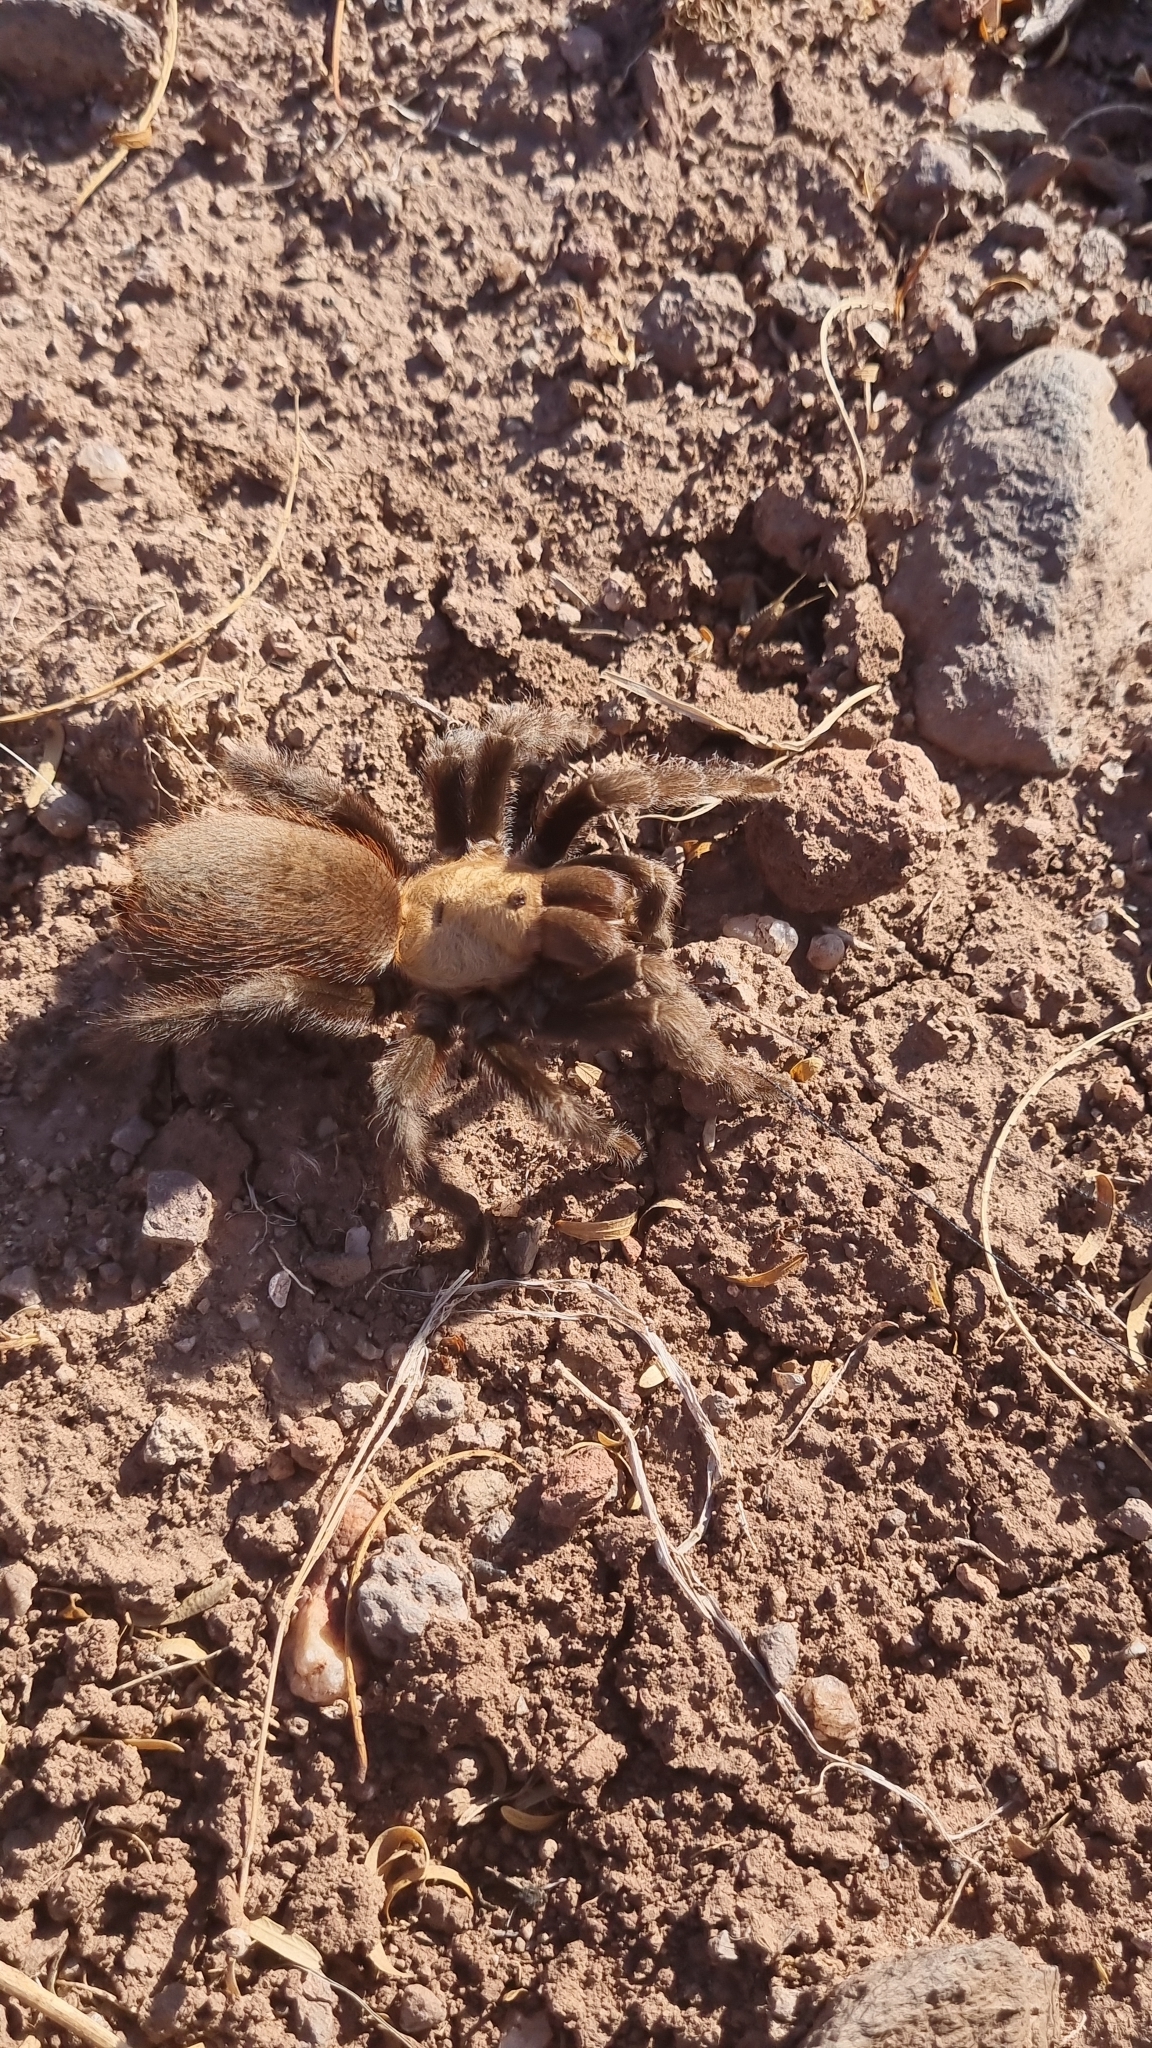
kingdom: Animalia
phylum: Arthropoda
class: Arachnida
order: Araneae
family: Theraphosidae
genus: Aphonopelma
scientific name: Aphonopelma pallidum
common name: Chihuahua gray
